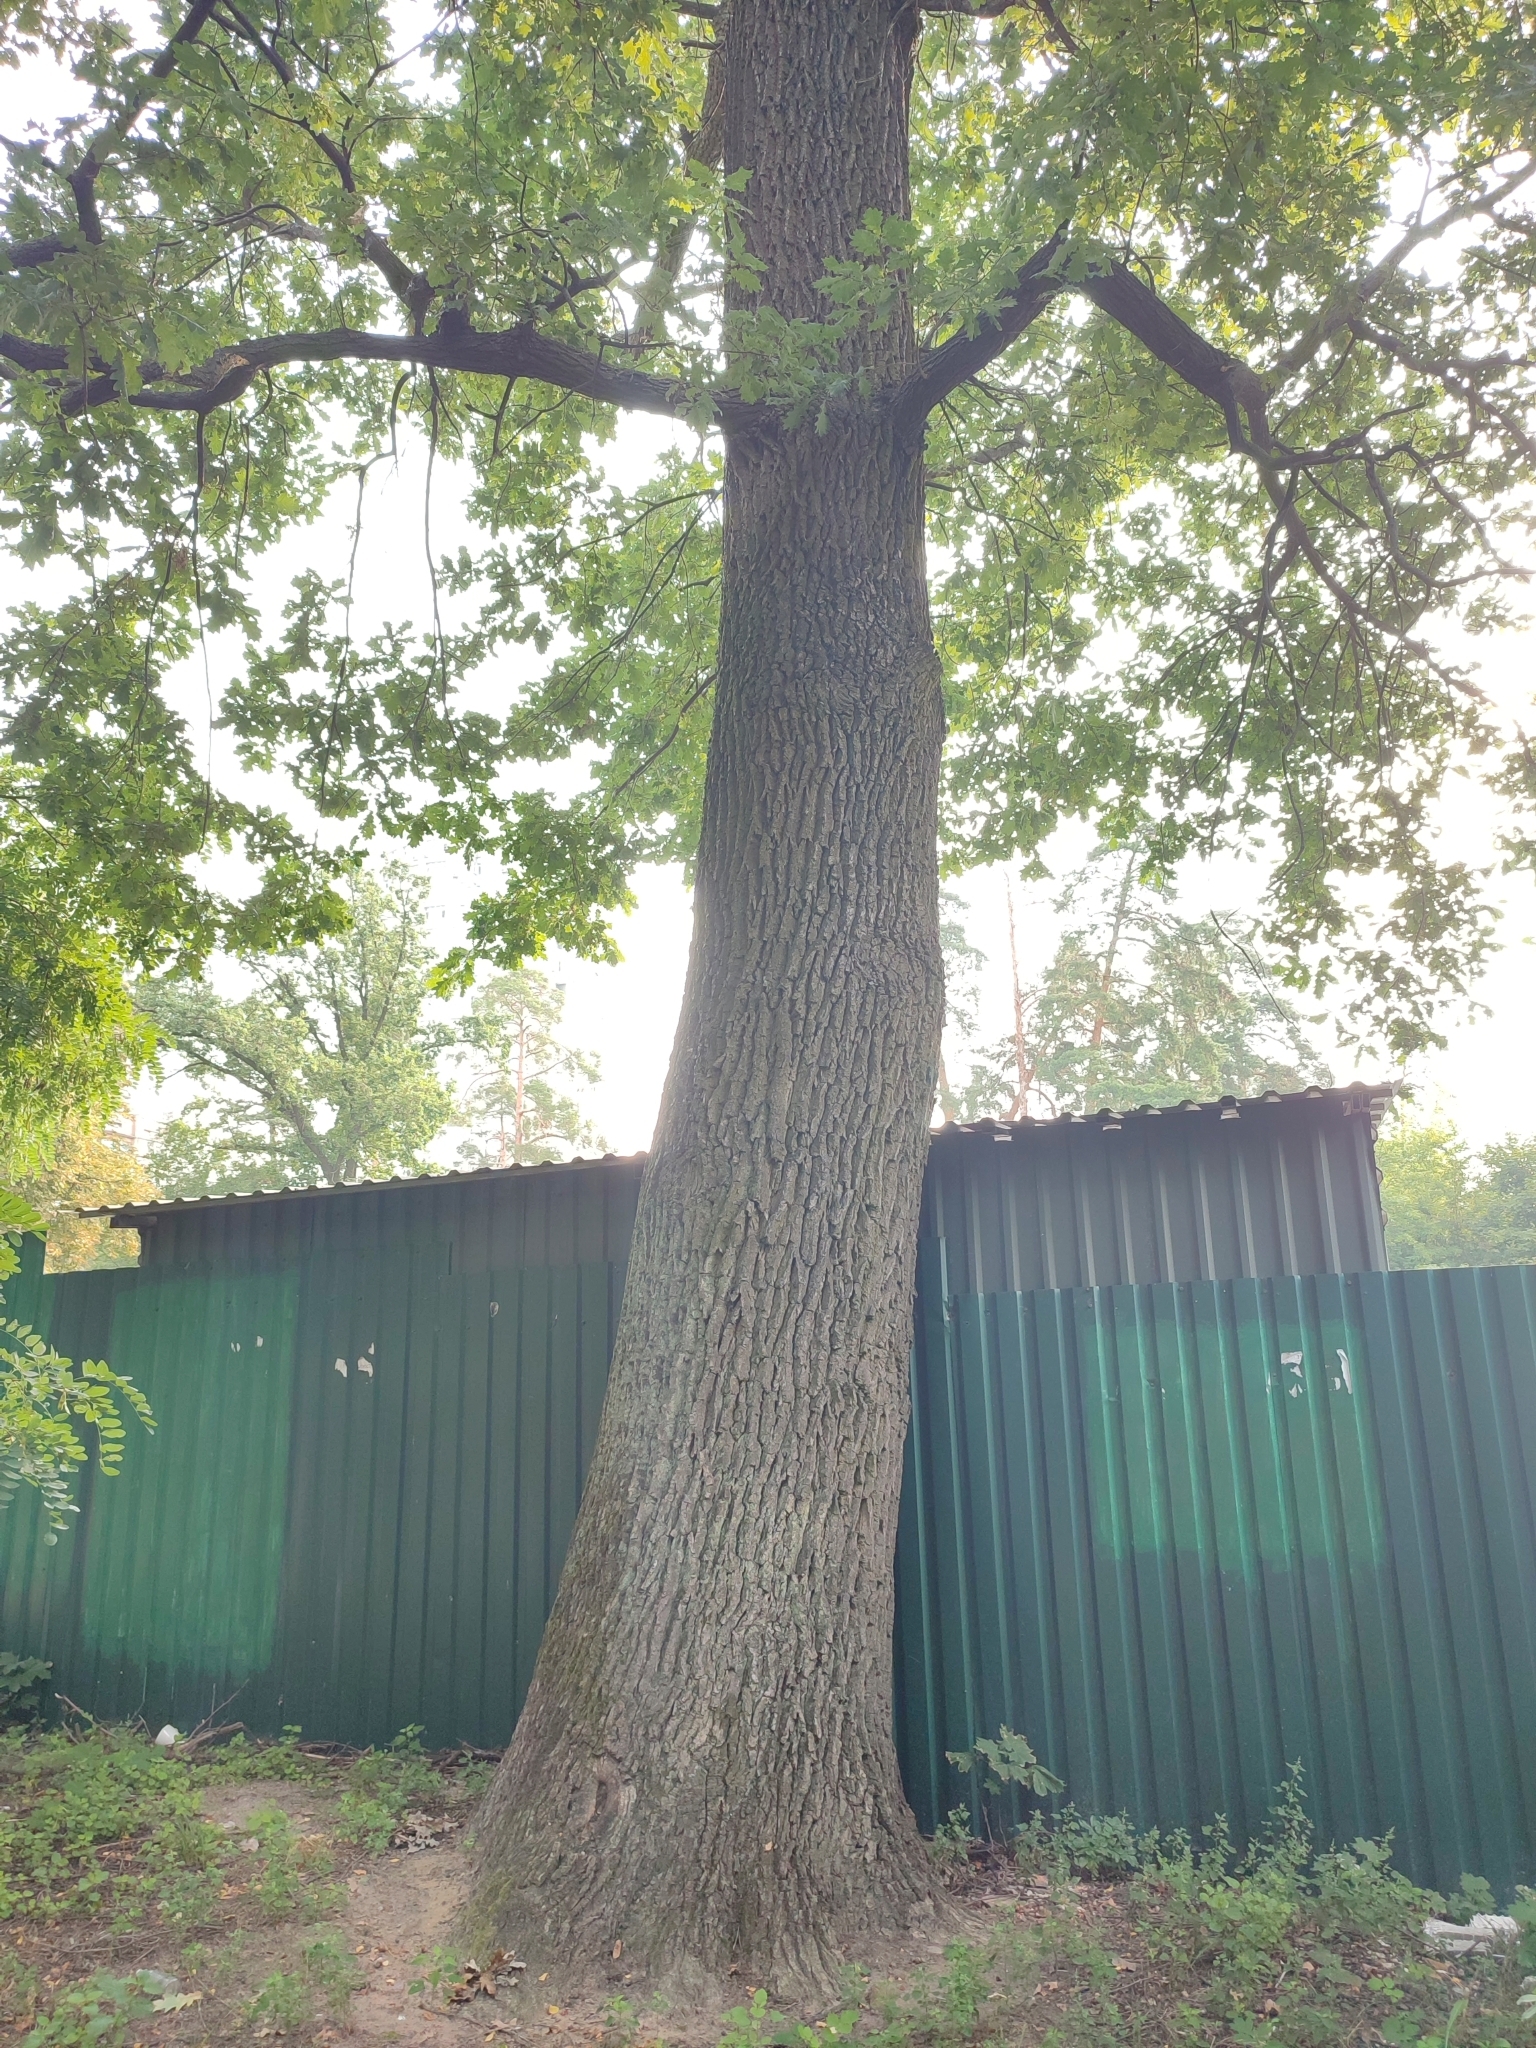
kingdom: Plantae
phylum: Tracheophyta
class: Magnoliopsida
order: Fagales
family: Fagaceae
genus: Quercus
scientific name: Quercus robur
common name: Pedunculate oak
